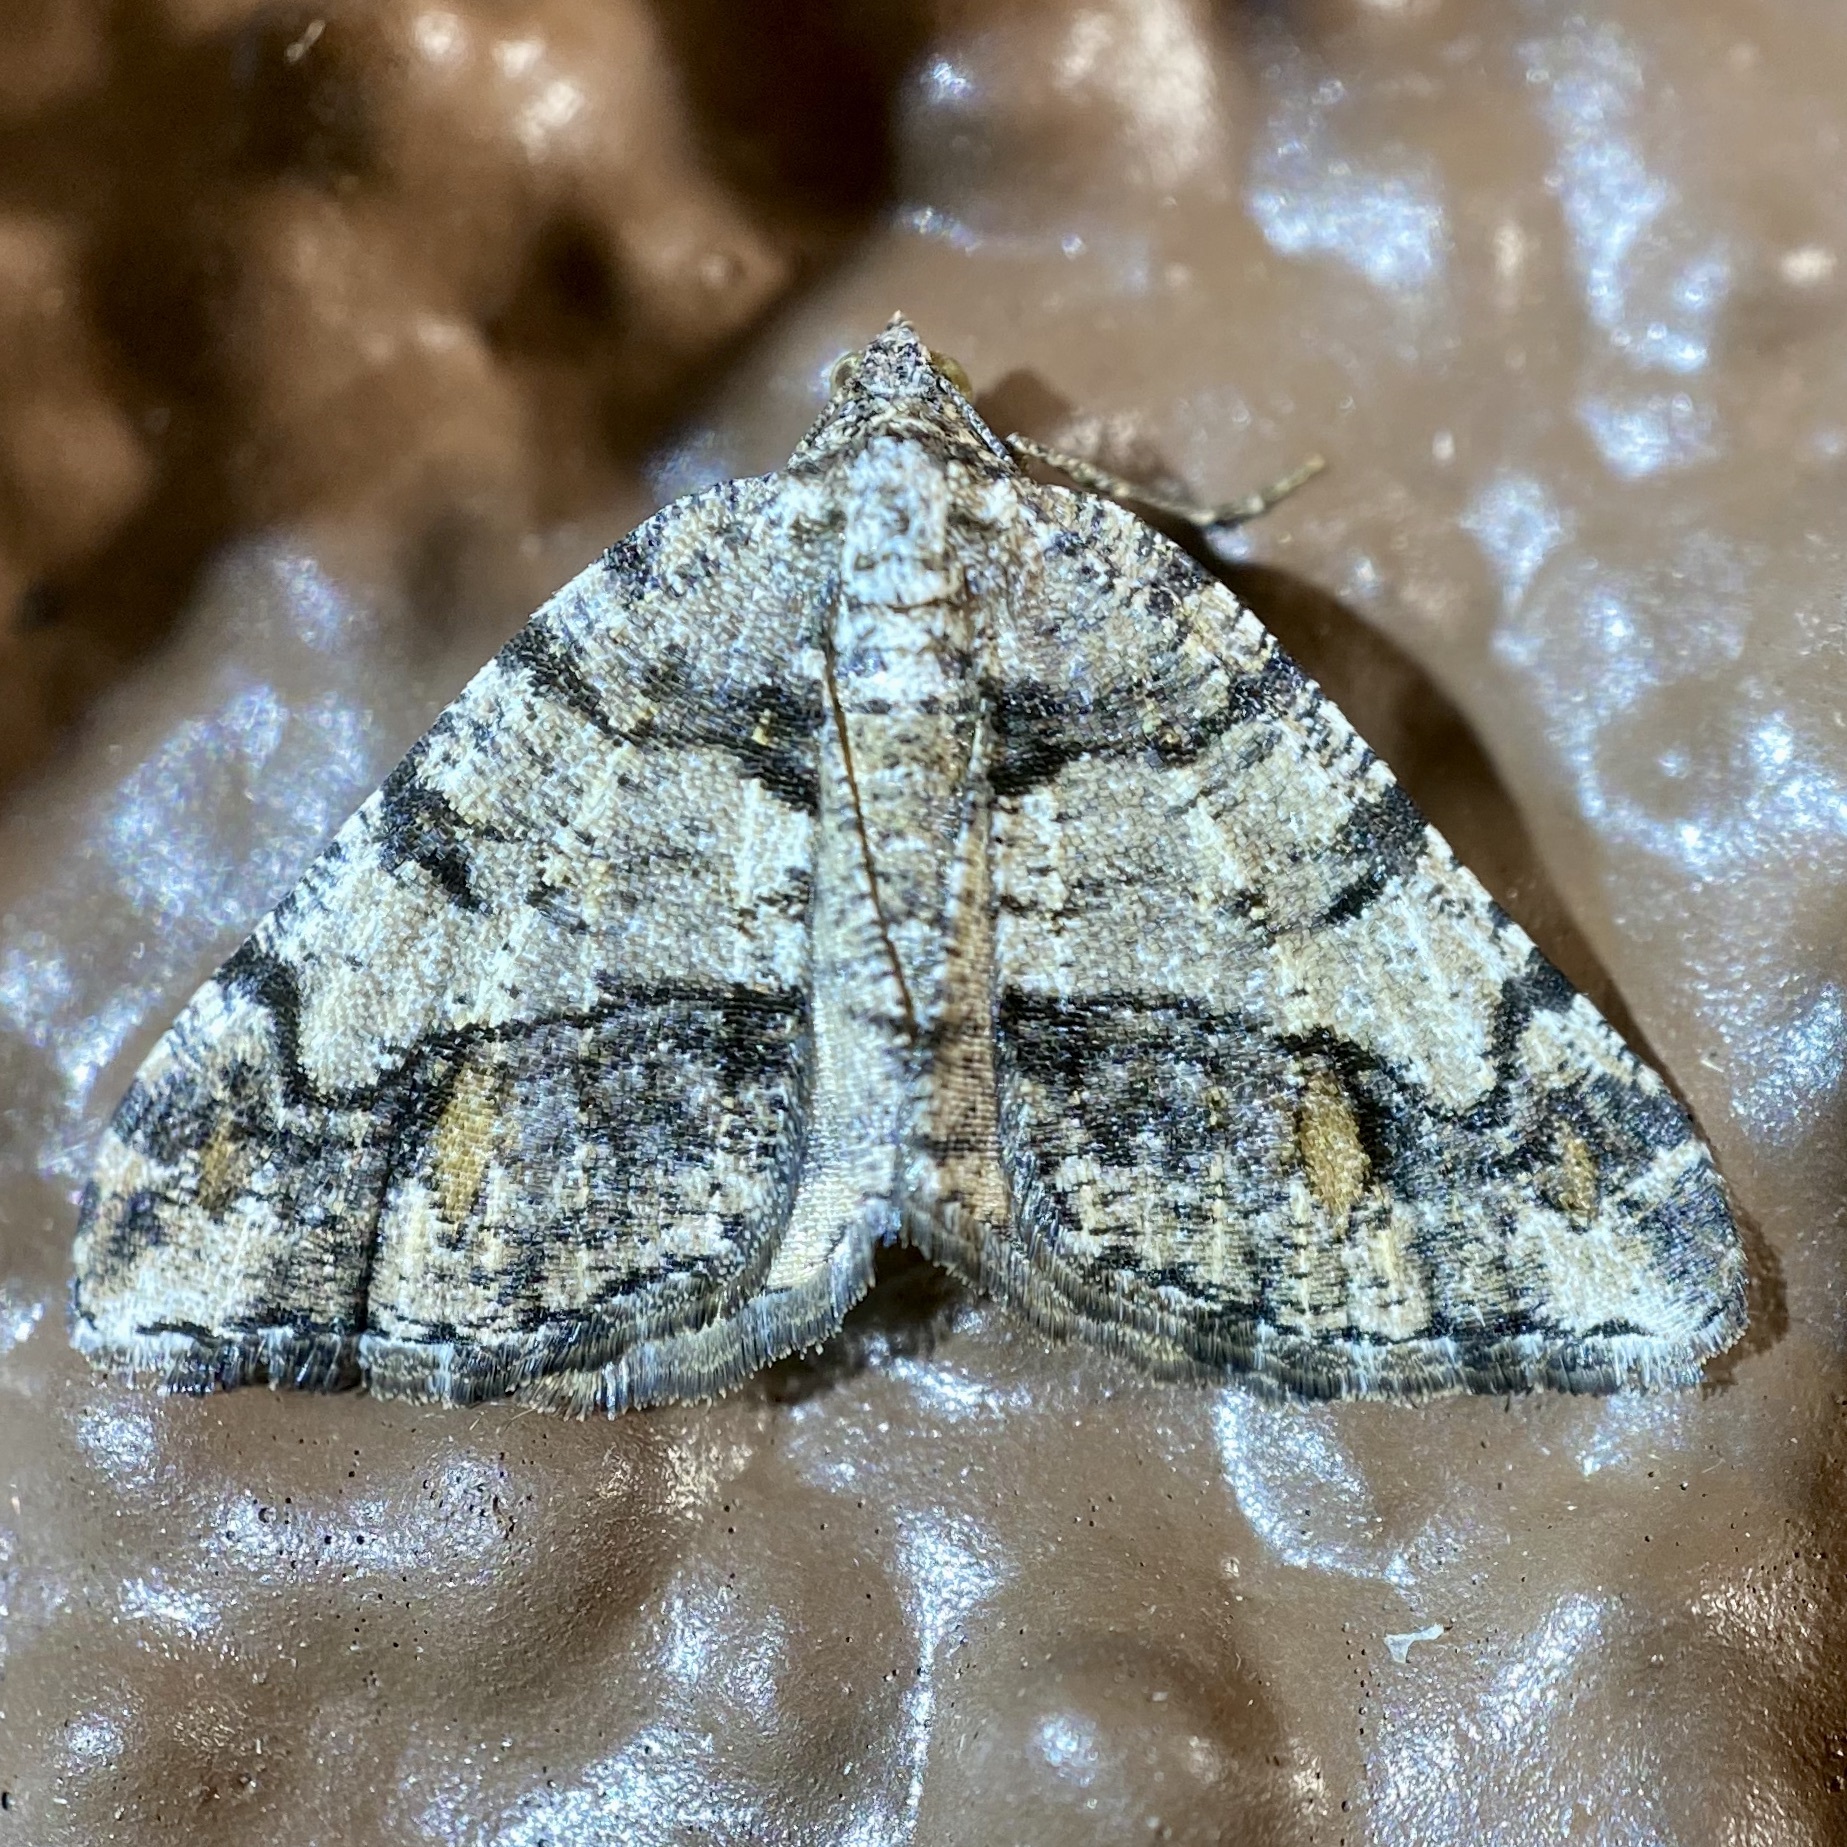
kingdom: Animalia
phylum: Arthropoda
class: Insecta
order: Lepidoptera
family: Geometridae
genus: Macaria
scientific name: Macaria deceptrix
